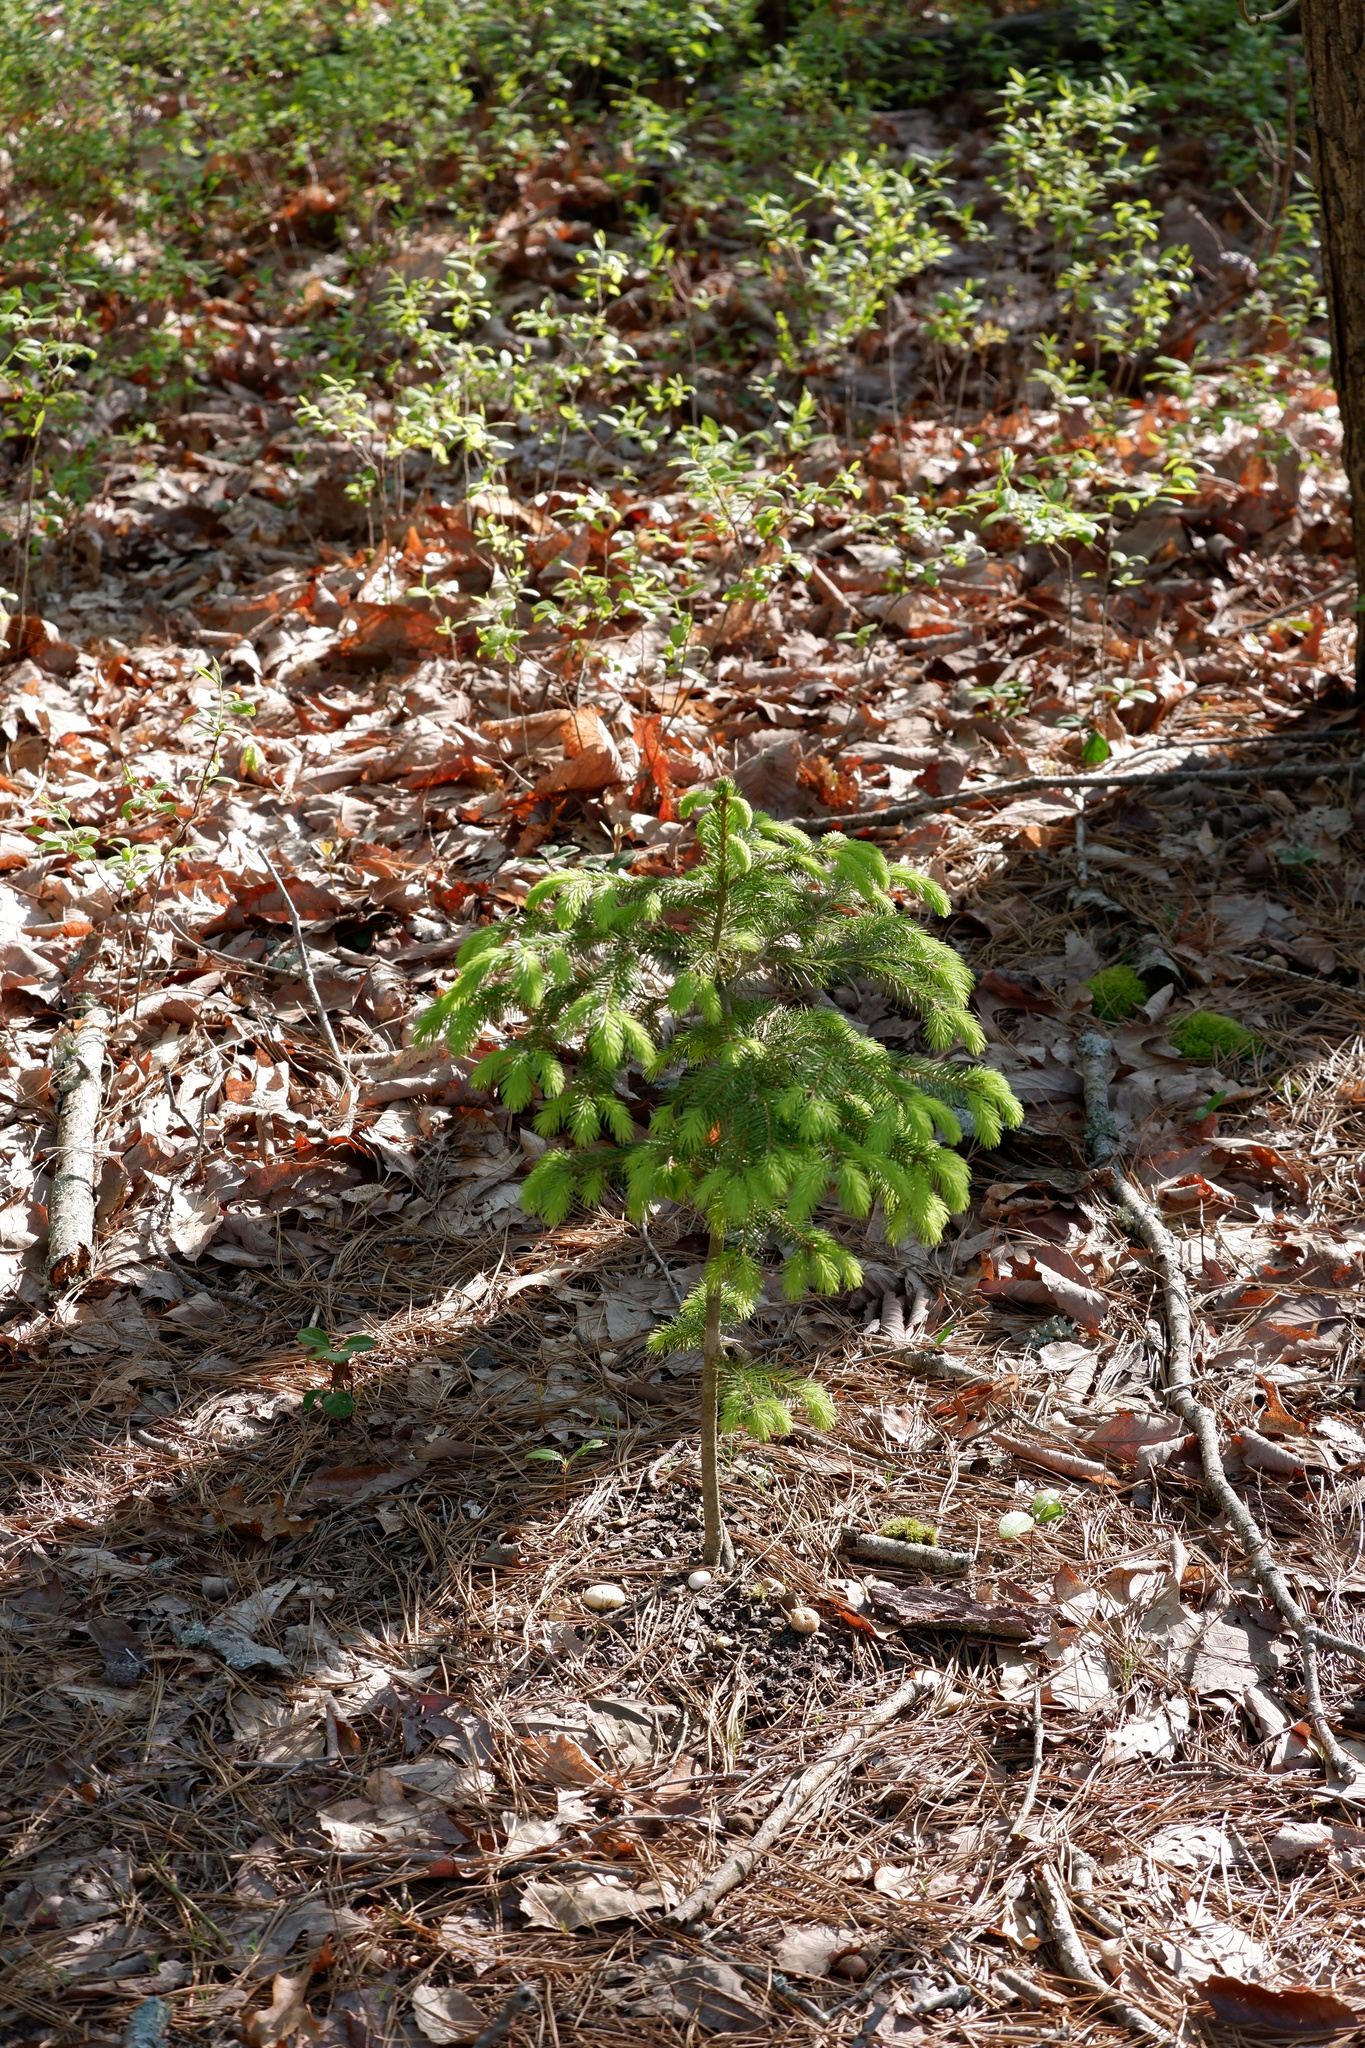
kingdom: Plantae
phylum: Tracheophyta
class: Pinopsida
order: Pinales
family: Pinaceae
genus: Picea
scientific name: Picea abies
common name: Norway spruce
